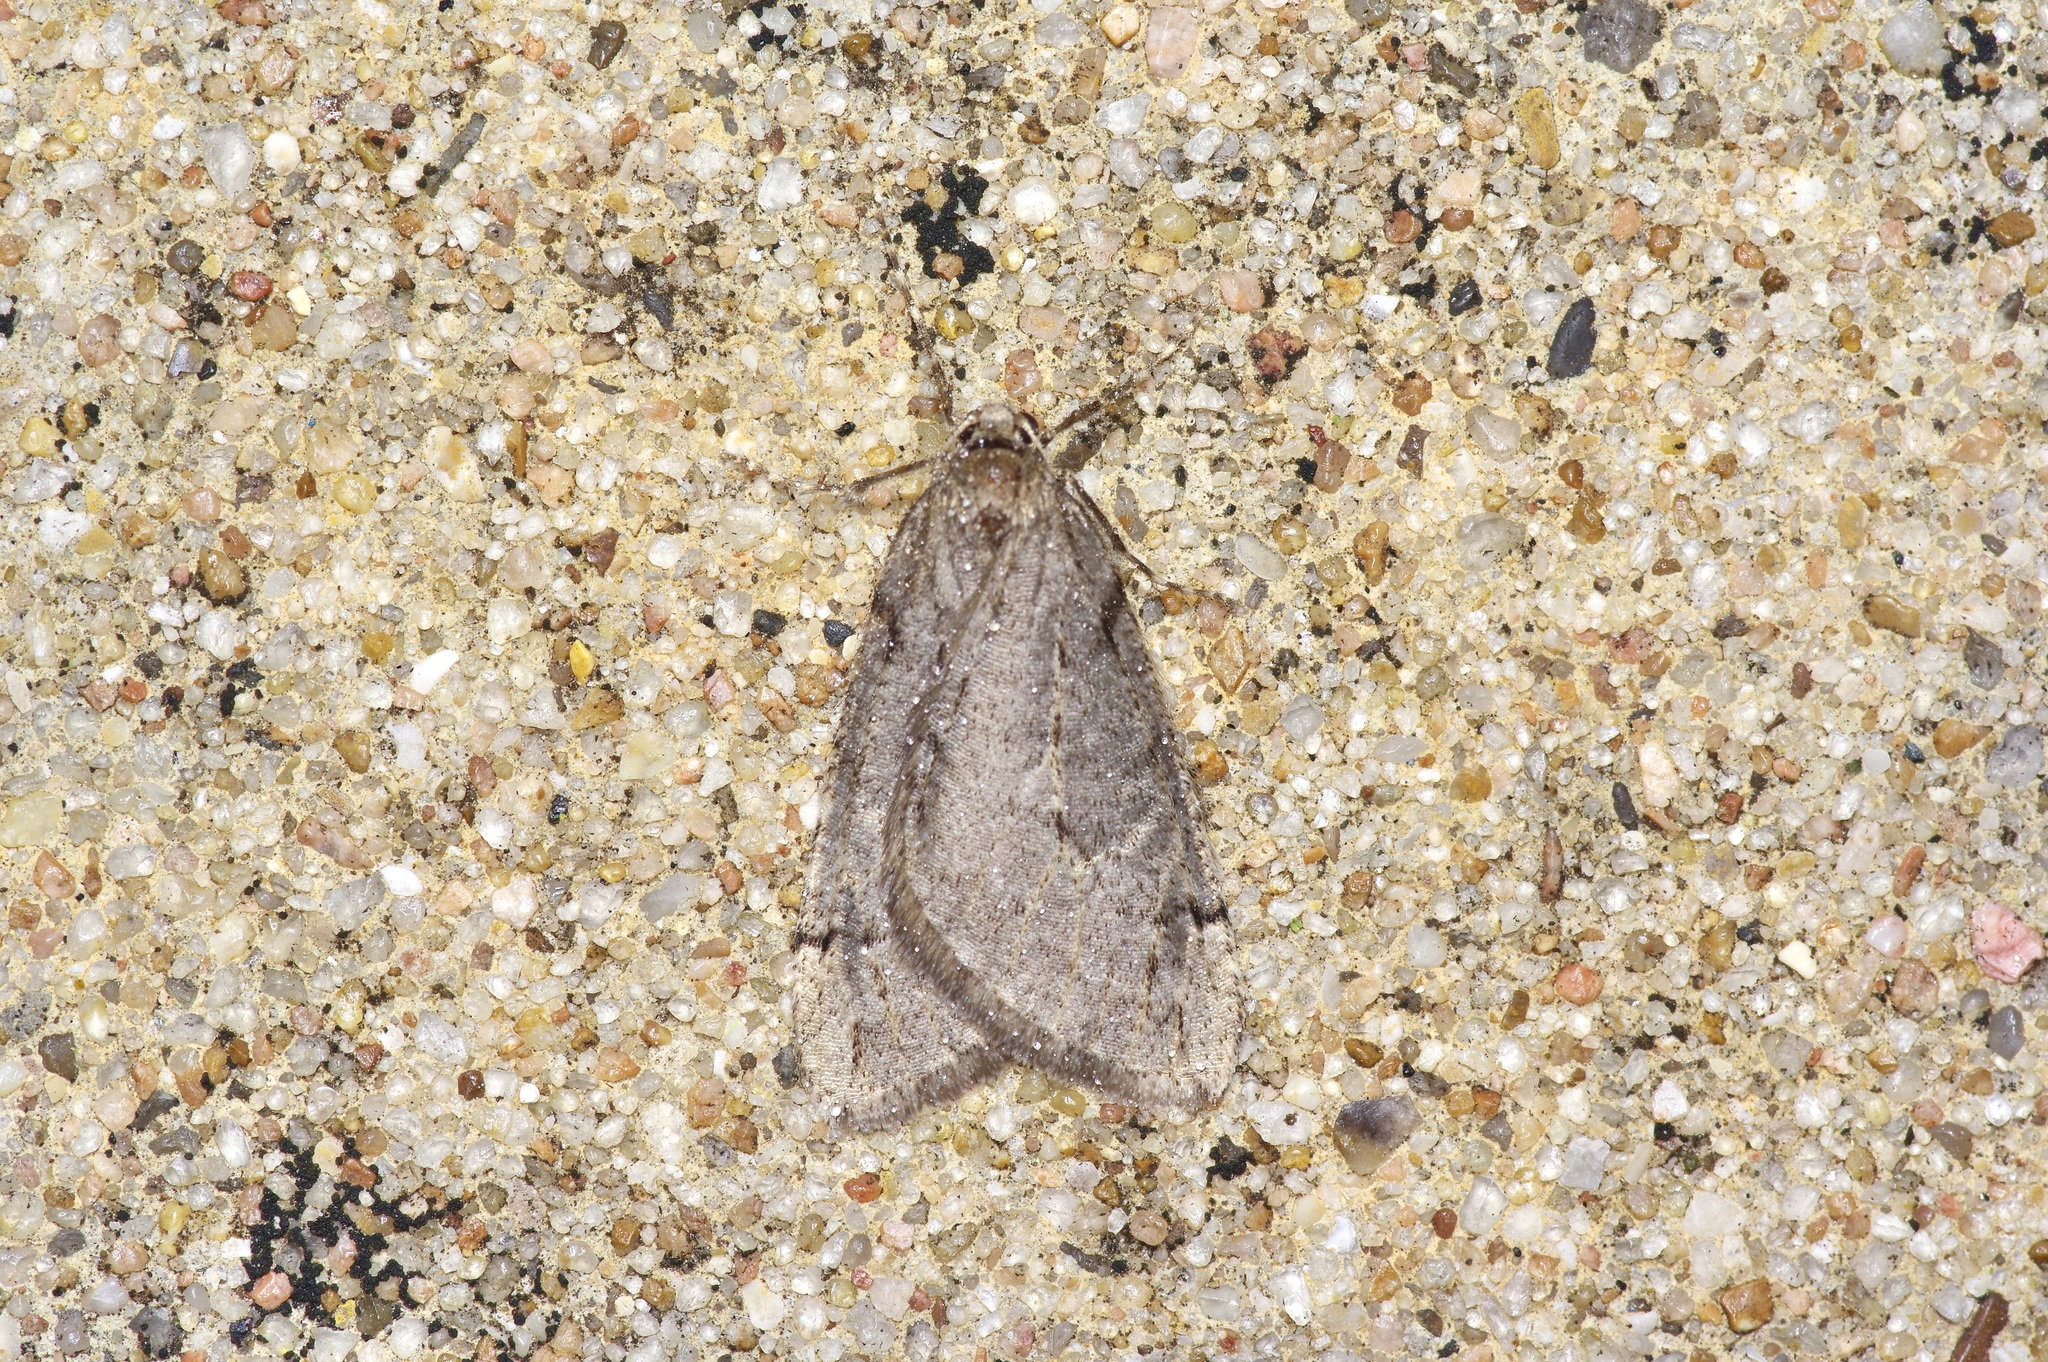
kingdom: Animalia
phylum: Arthropoda
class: Insecta
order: Lepidoptera
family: Geometridae
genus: Paleacrita
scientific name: Paleacrita vernata
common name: Spring cankerworm
